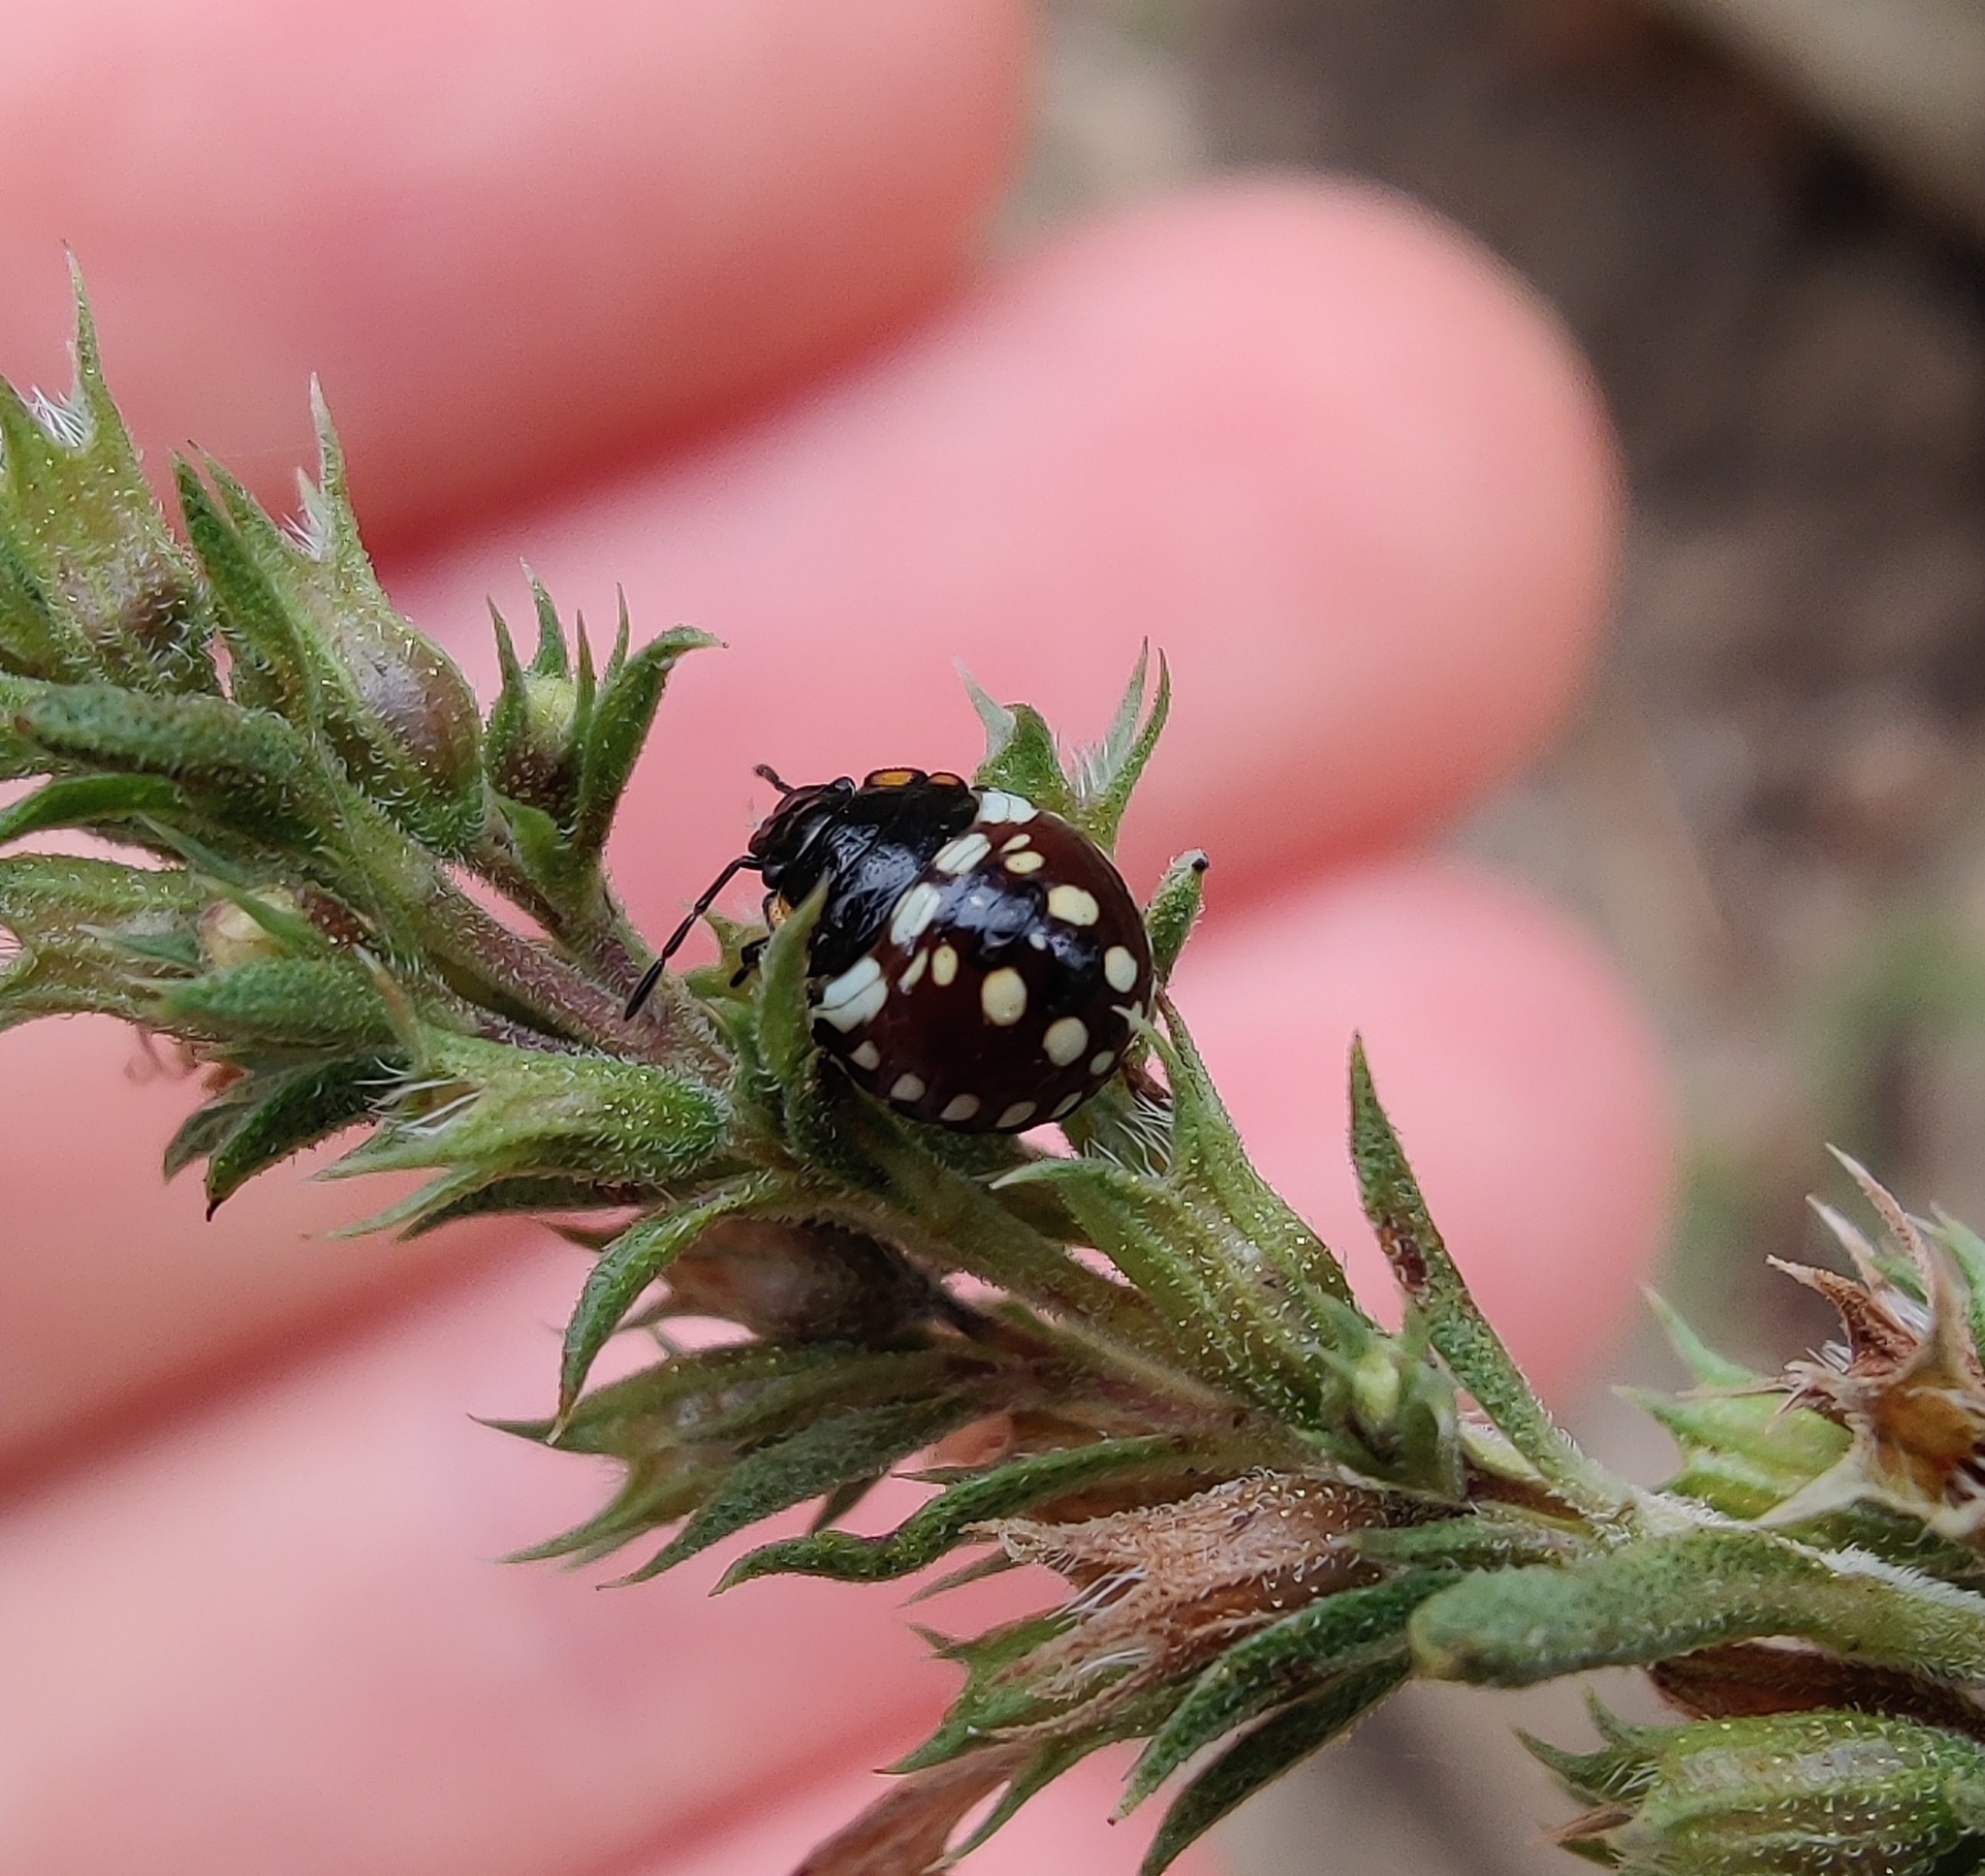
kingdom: Animalia
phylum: Arthropoda
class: Insecta
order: Hemiptera
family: Pentatomidae
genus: Nezara
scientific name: Nezara viridula
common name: Southern green stink bug
